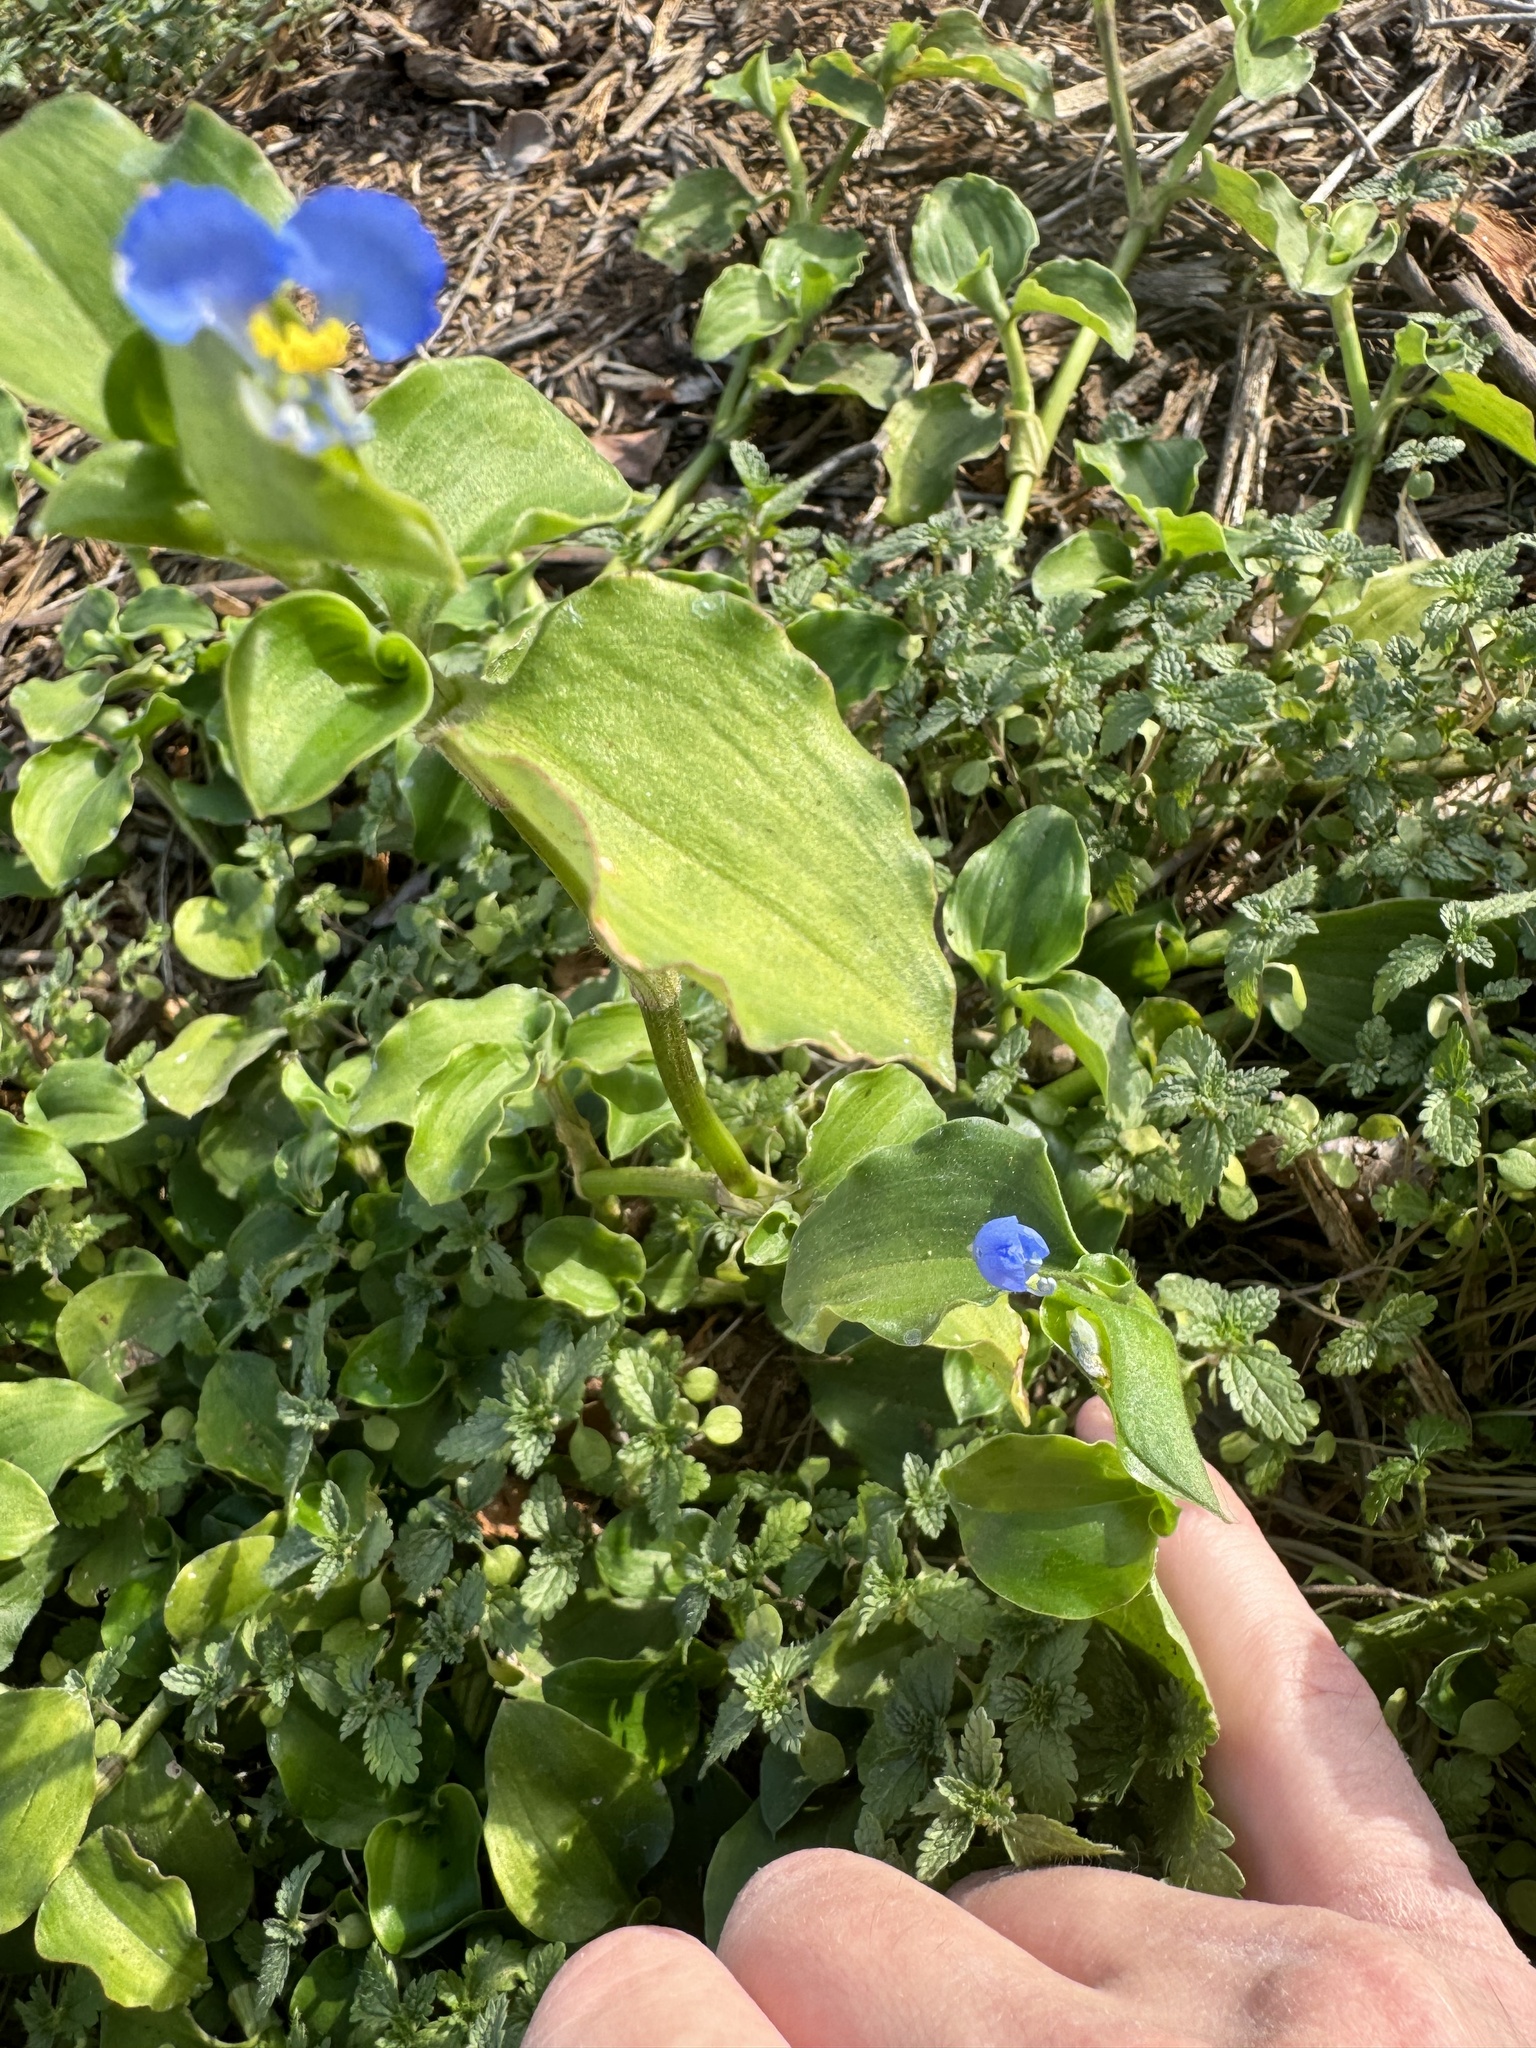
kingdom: Plantae
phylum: Tracheophyta
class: Liliopsida
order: Commelinales
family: Commelinaceae
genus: Commelina
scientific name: Commelina benghalensis
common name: Jio
